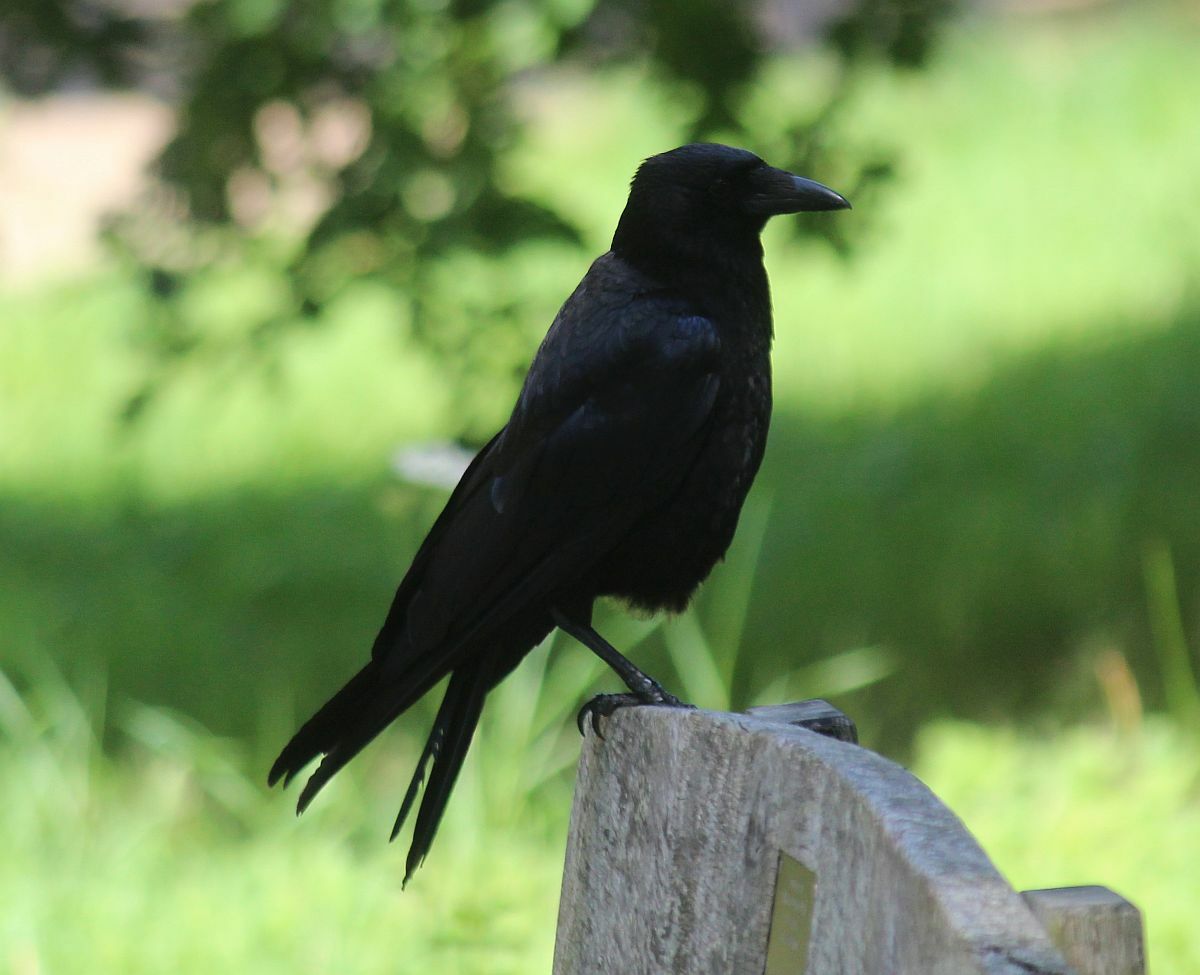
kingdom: Animalia
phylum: Chordata
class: Aves
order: Passeriformes
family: Corvidae
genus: Corvus
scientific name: Corvus corone
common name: Carrion crow
